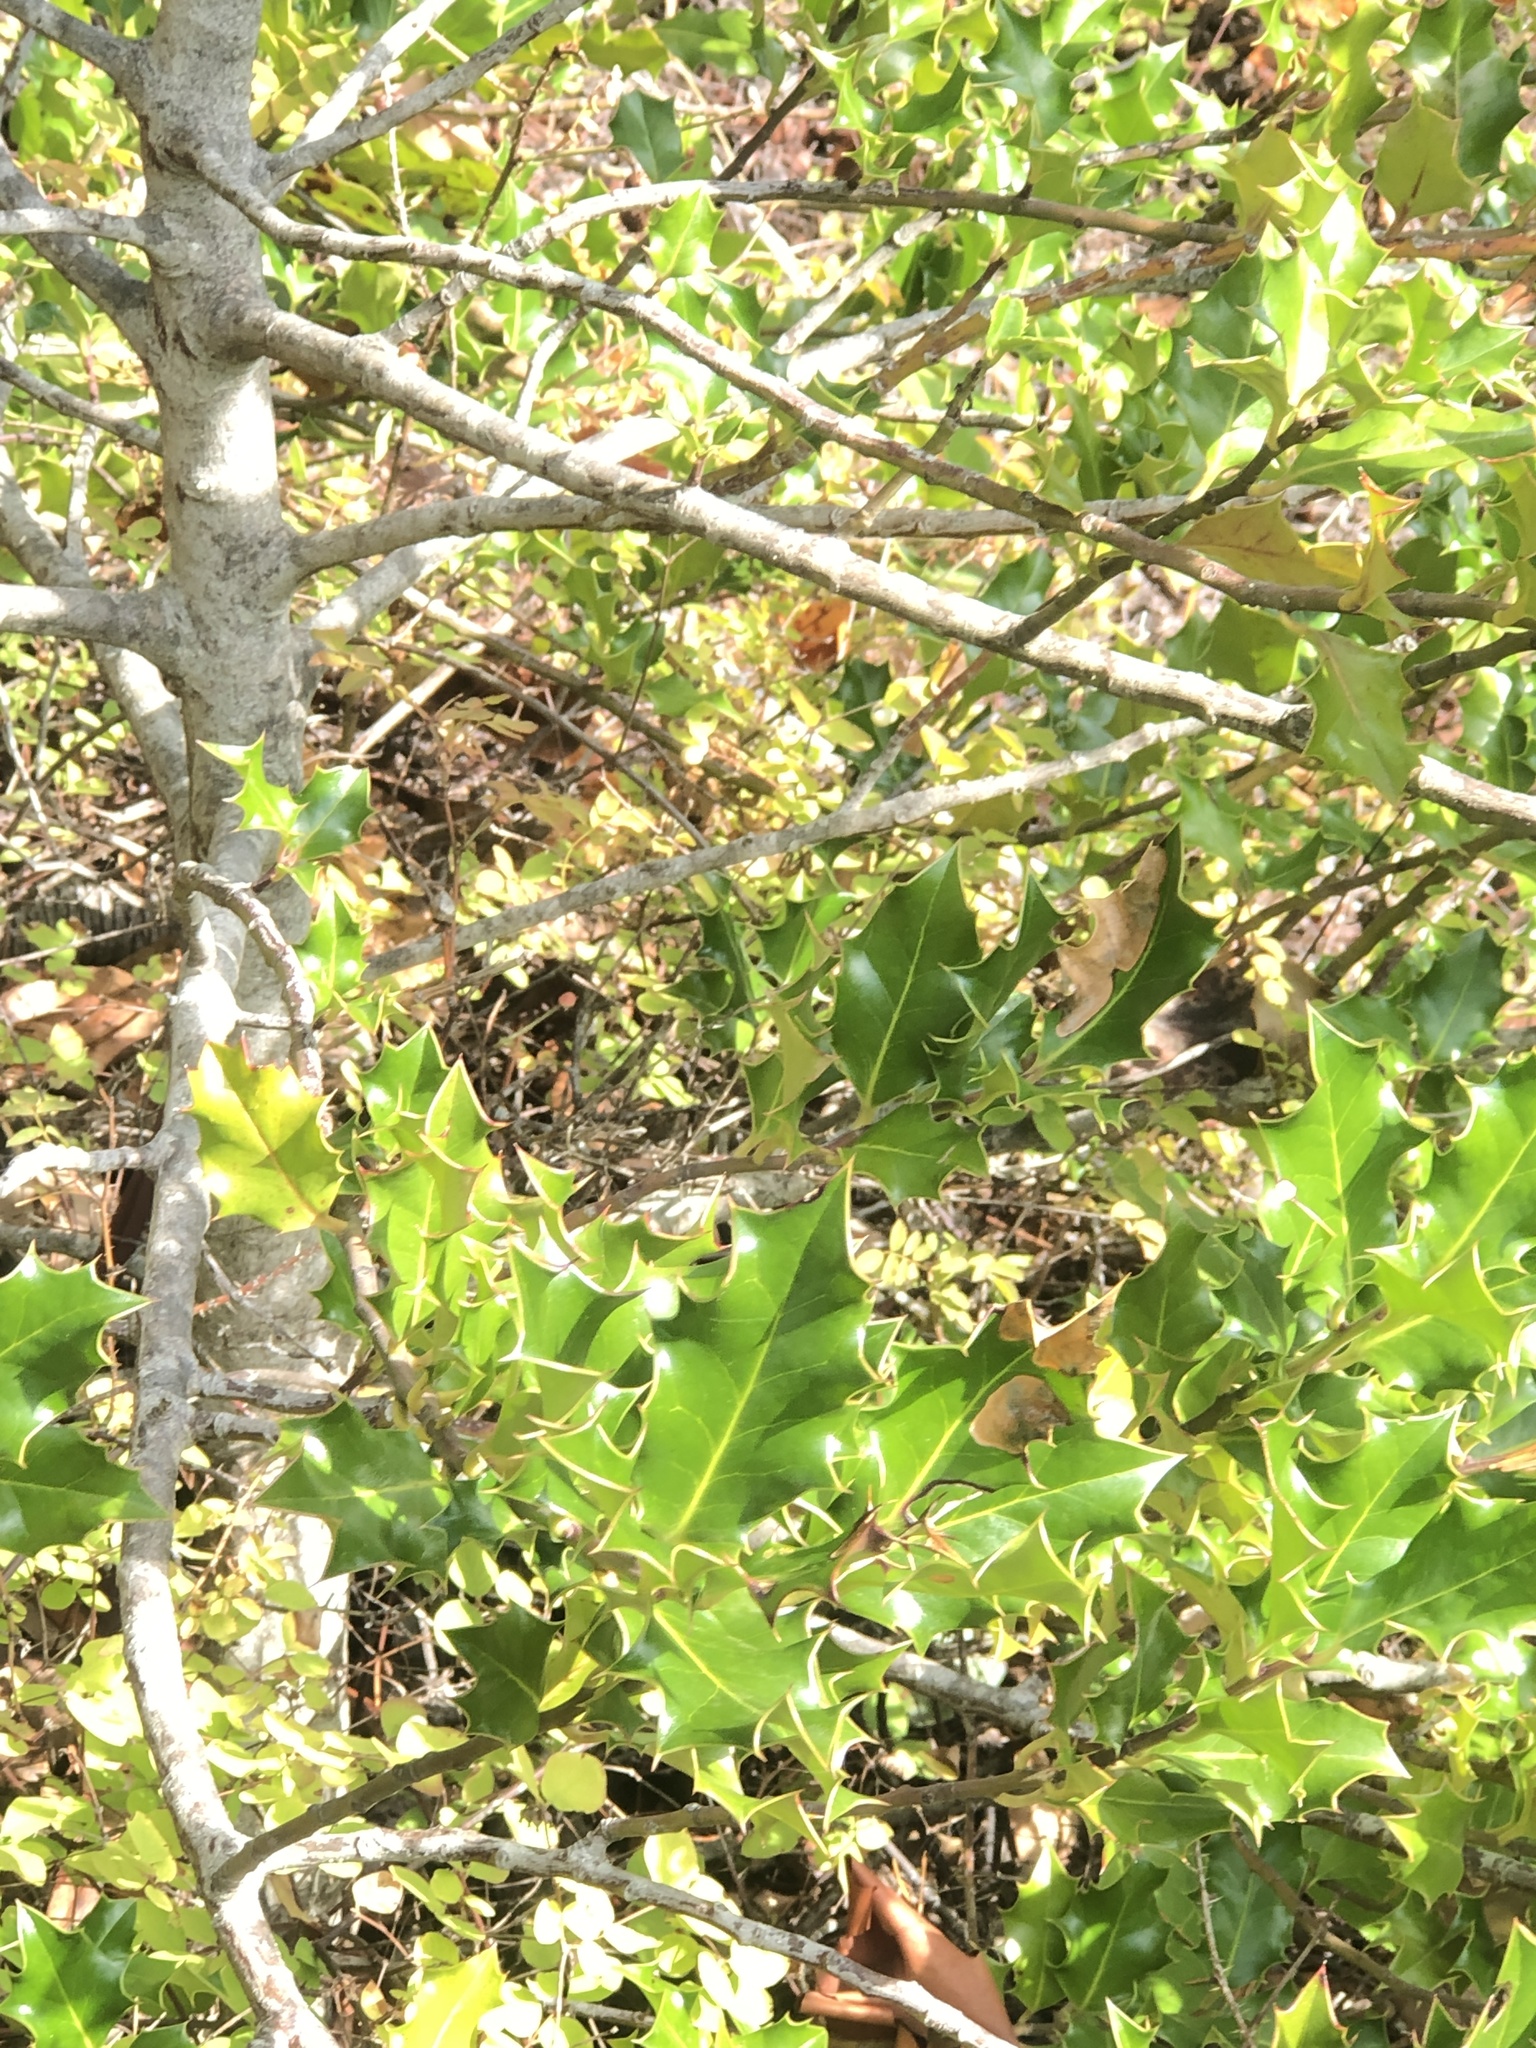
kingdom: Plantae
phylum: Tracheophyta
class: Magnoliopsida
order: Aquifoliales
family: Aquifoliaceae
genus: Ilex
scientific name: Ilex aquifolium
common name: English holly
